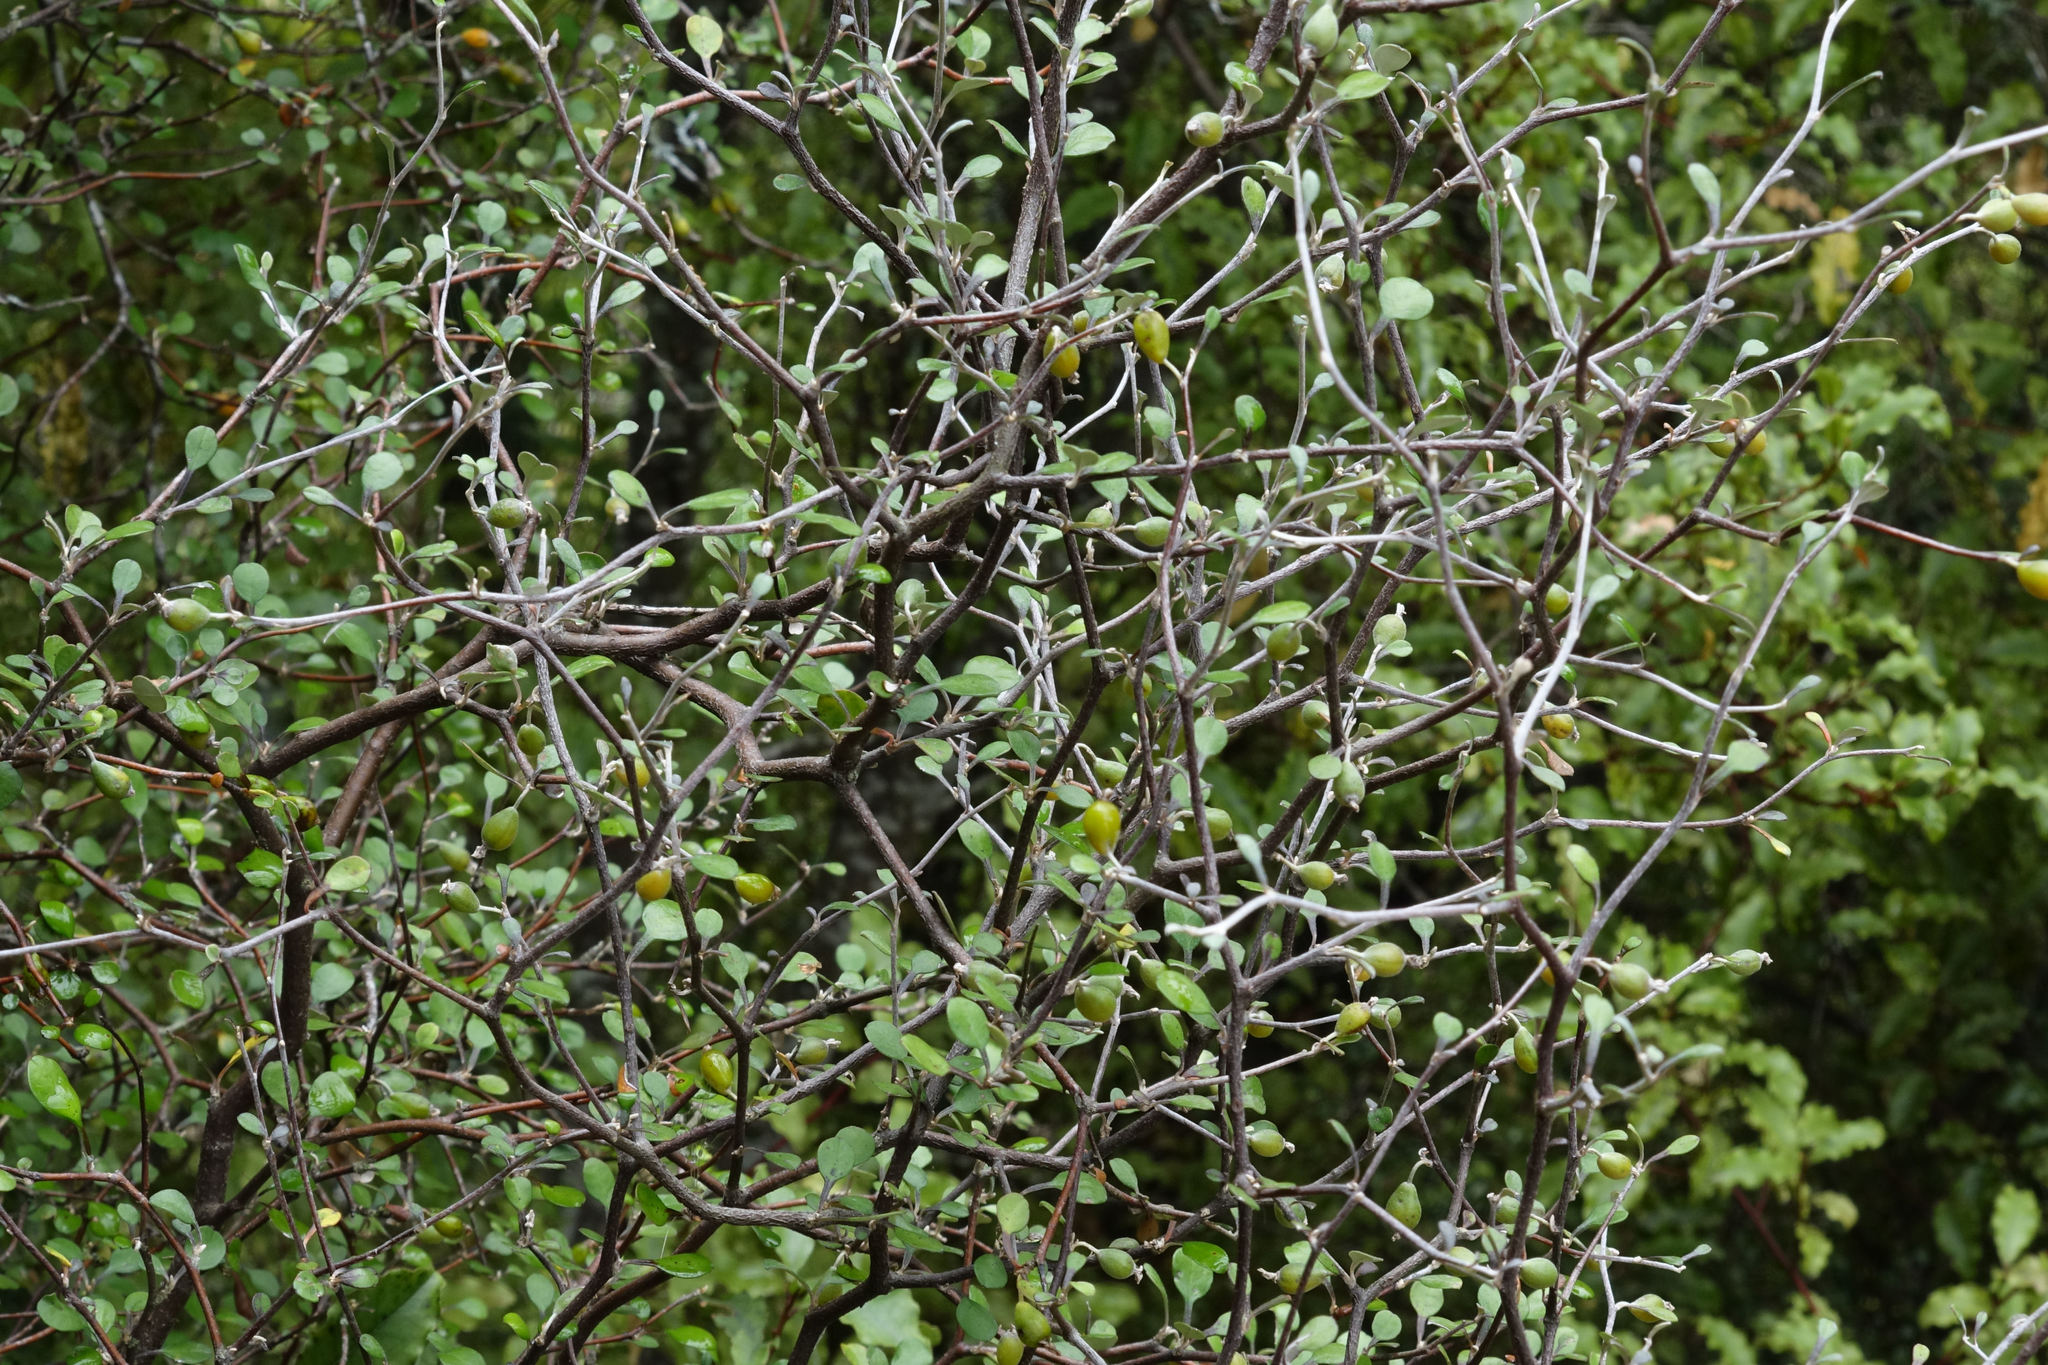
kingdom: Plantae
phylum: Tracheophyta
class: Magnoliopsida
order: Asterales
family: Argophyllaceae
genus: Corokia
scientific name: Corokia cotoneaster
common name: Wire nettingbush
